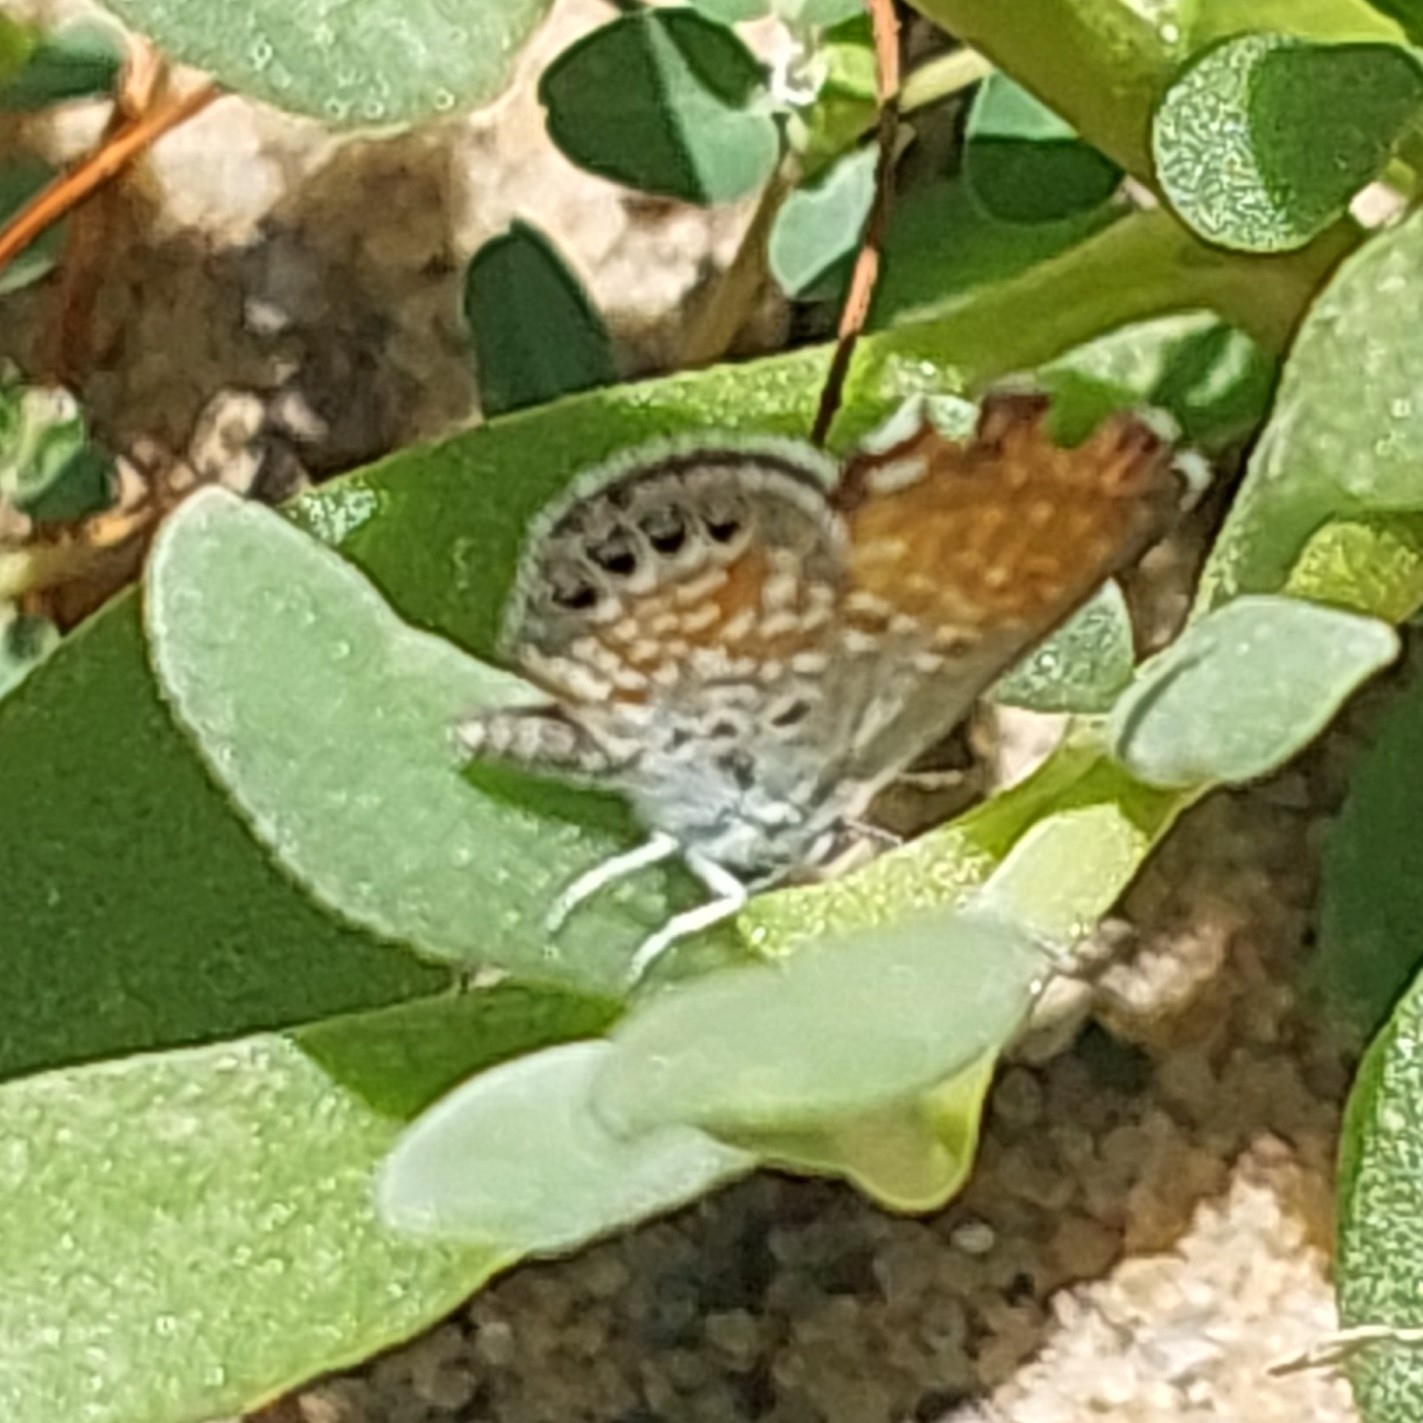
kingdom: Animalia
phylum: Arthropoda
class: Insecta
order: Lepidoptera
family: Lycaenidae
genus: Brephidium
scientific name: Brephidium exilis
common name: Pygmy blue
